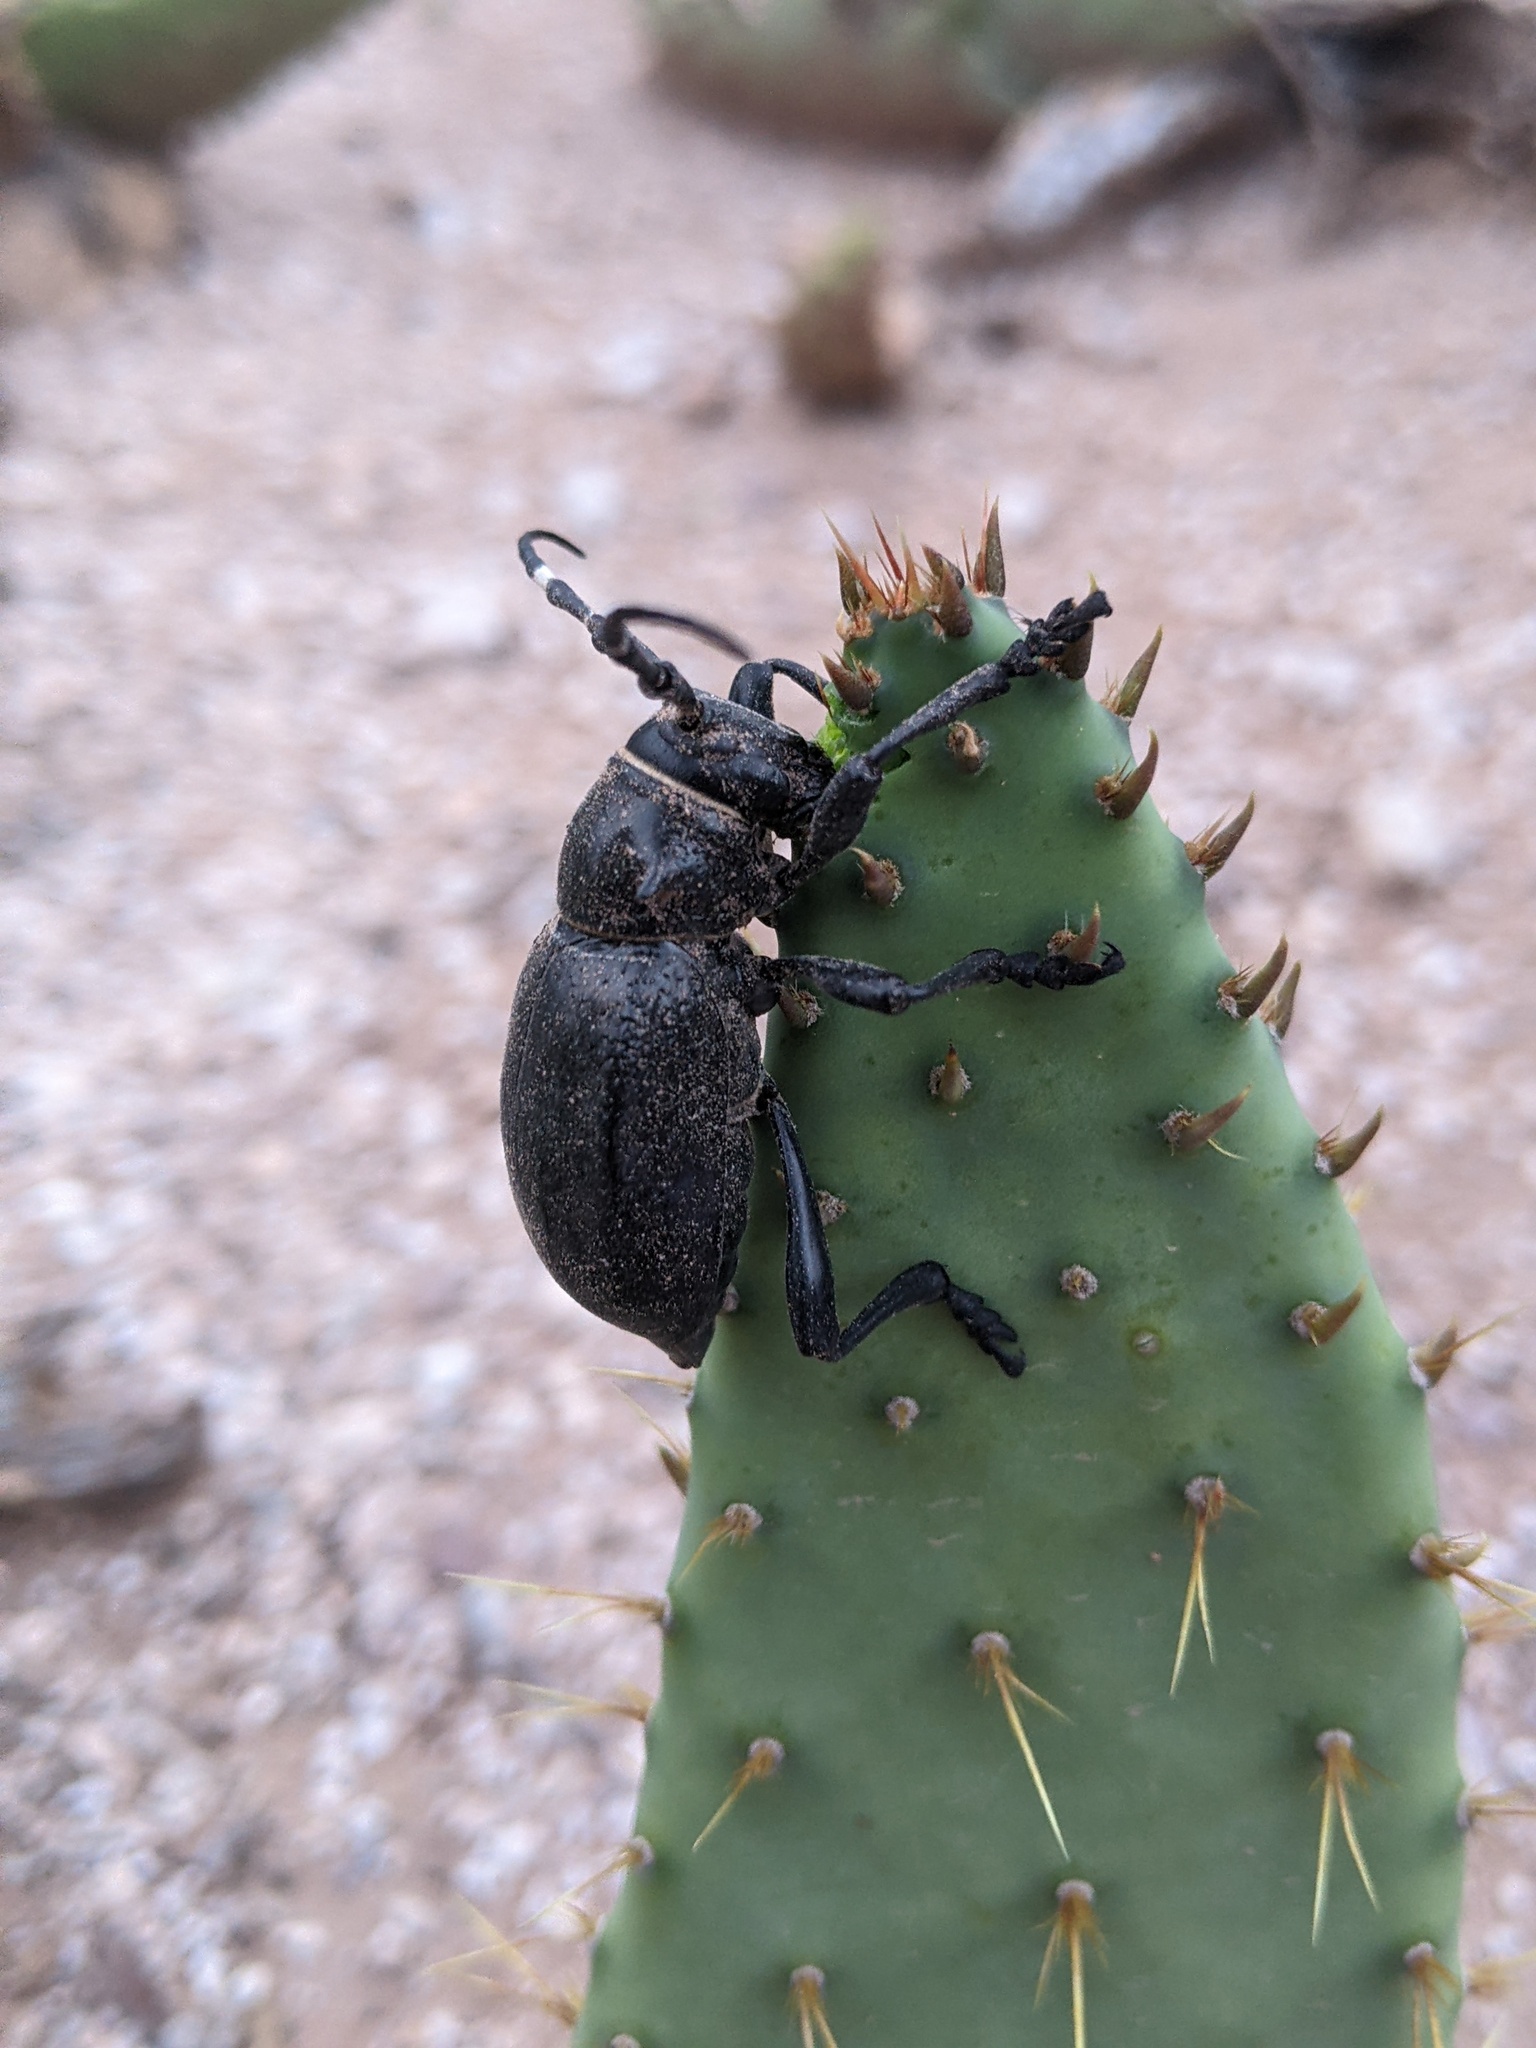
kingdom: Animalia
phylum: Arthropoda
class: Insecta
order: Coleoptera
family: Cerambycidae
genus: Moneilema
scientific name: Moneilema gigas
